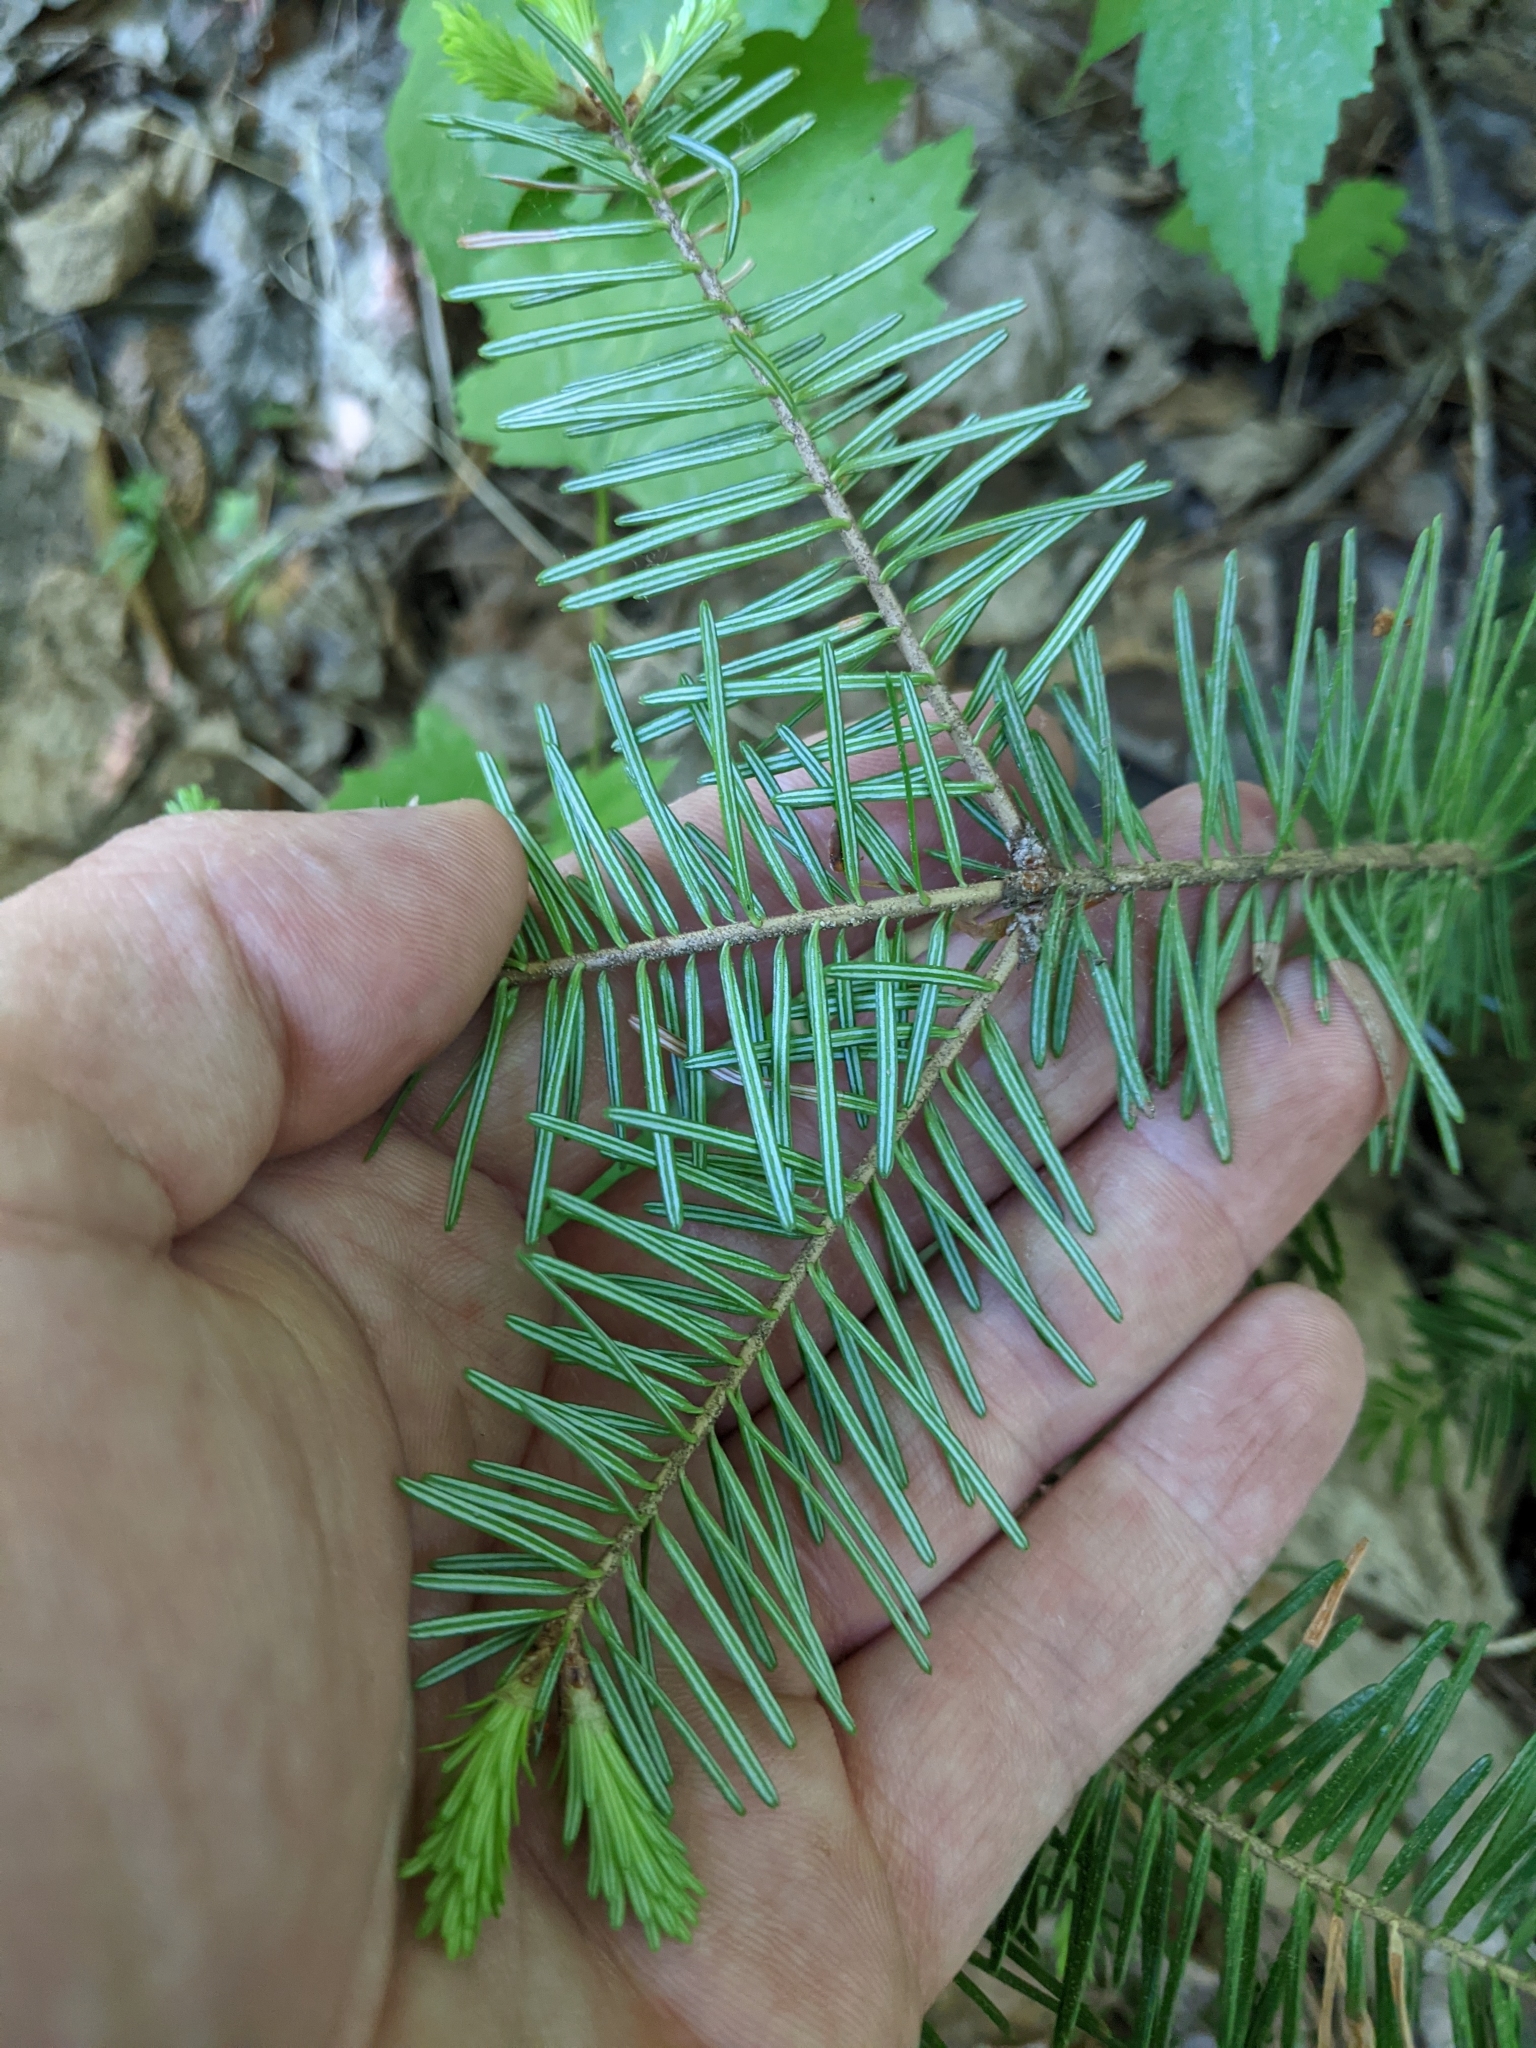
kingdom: Plantae
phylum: Tracheophyta
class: Pinopsida
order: Pinales
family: Pinaceae
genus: Abies
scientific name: Abies balsamea
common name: Balsam fir
